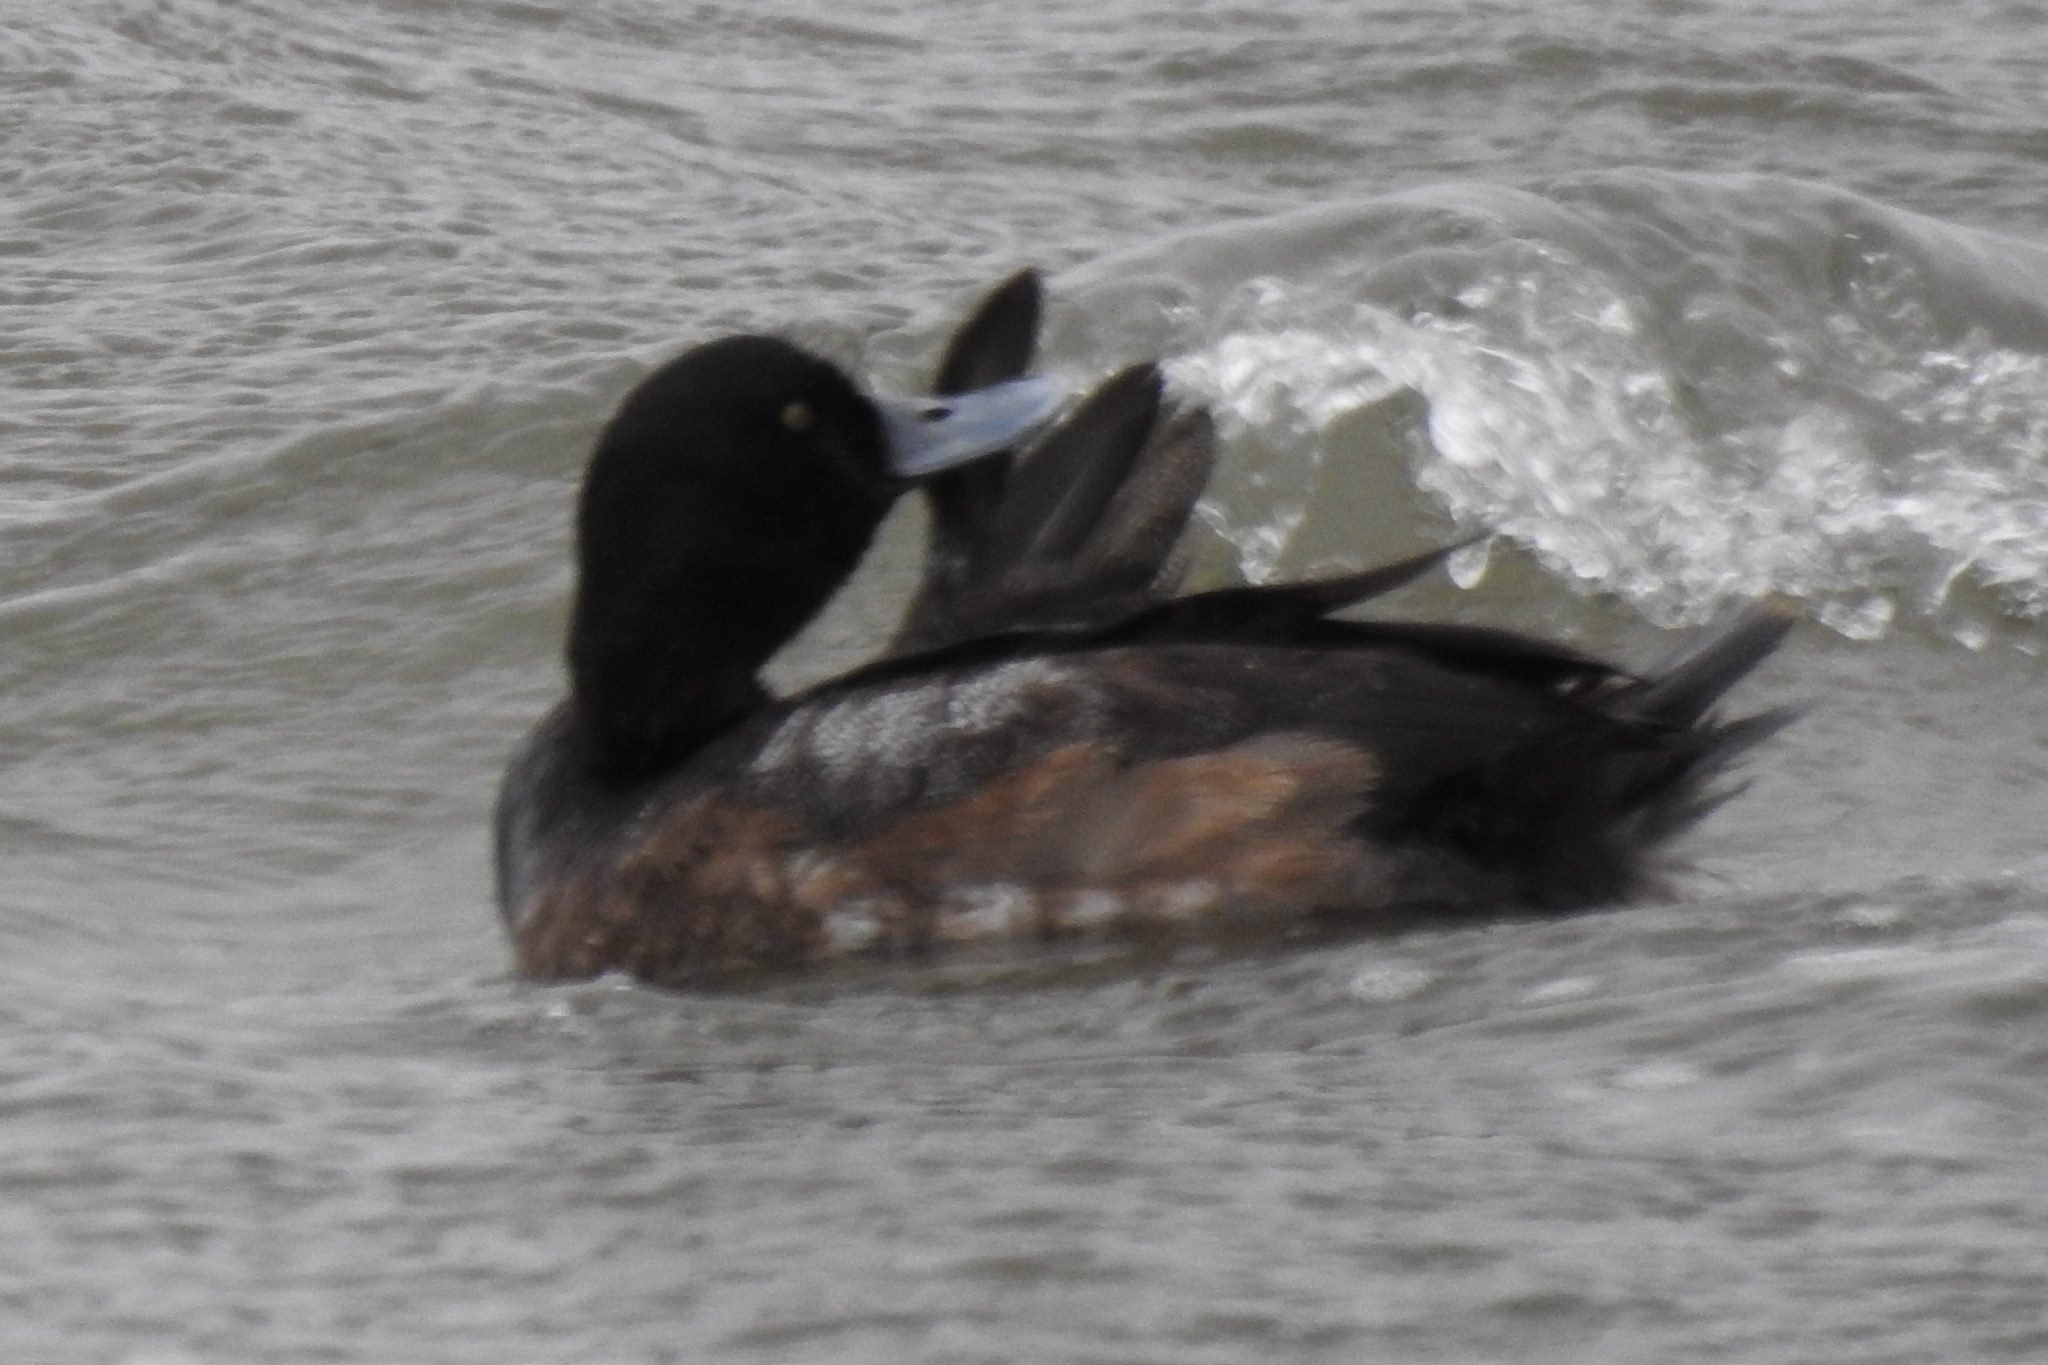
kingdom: Animalia
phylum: Chordata
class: Aves
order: Anseriformes
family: Anatidae
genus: Aythya
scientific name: Aythya affinis
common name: Lesser scaup
